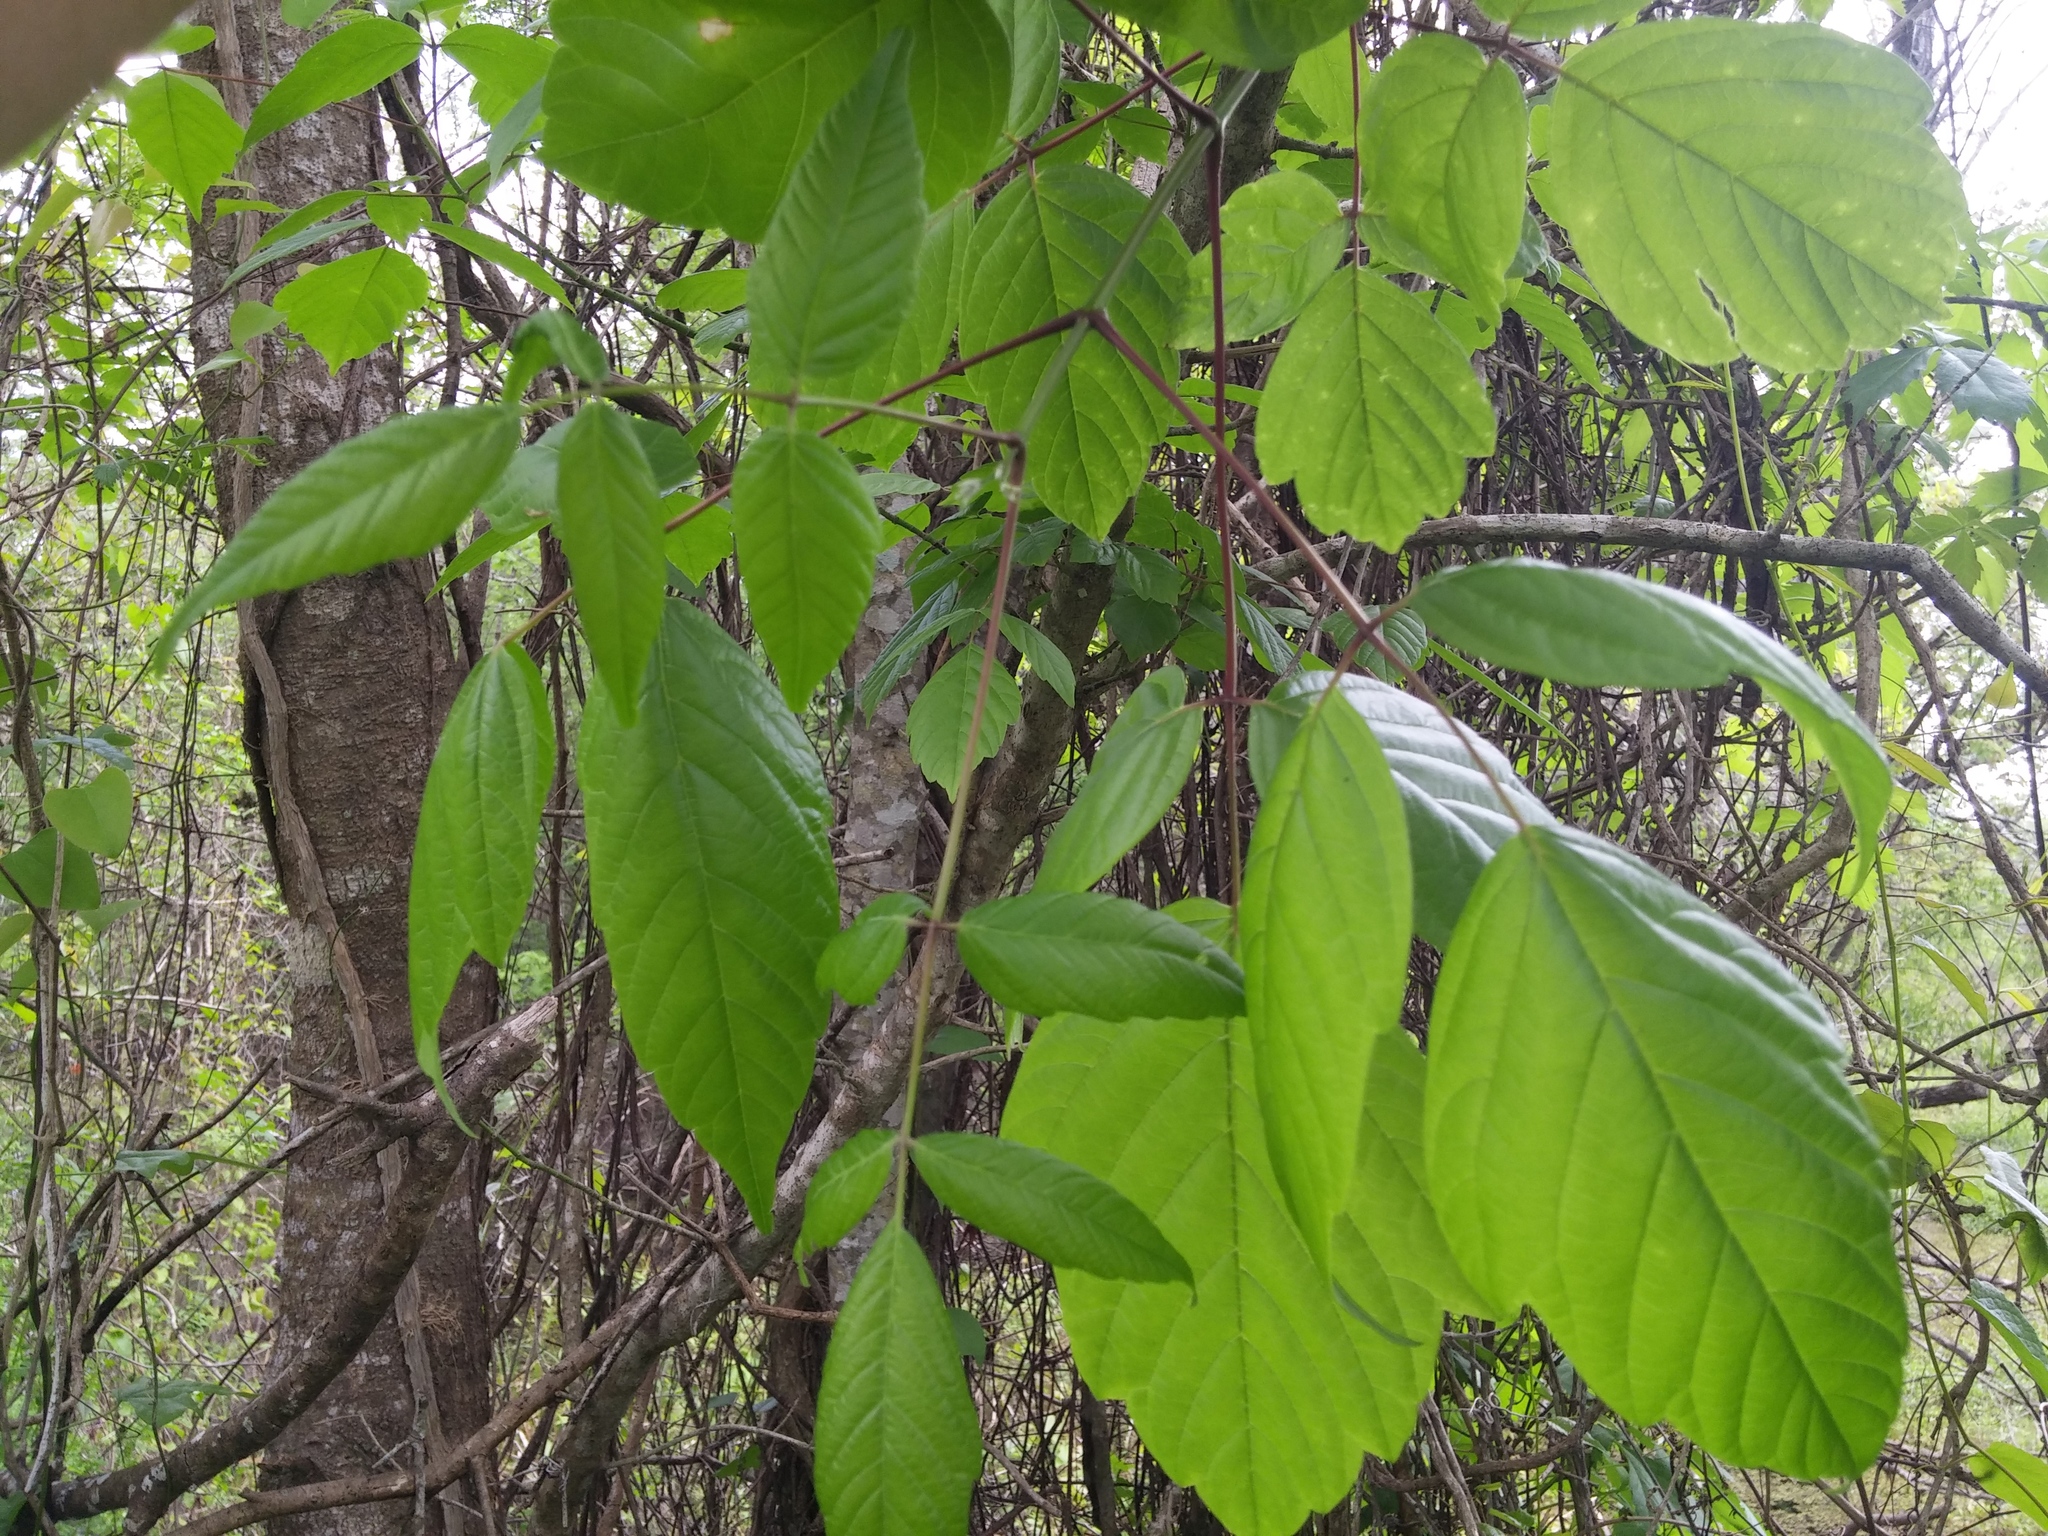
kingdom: Plantae
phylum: Tracheophyta
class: Magnoliopsida
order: Sapindales
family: Sapindaceae
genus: Acer
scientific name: Acer negundo
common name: Ashleaf maple
